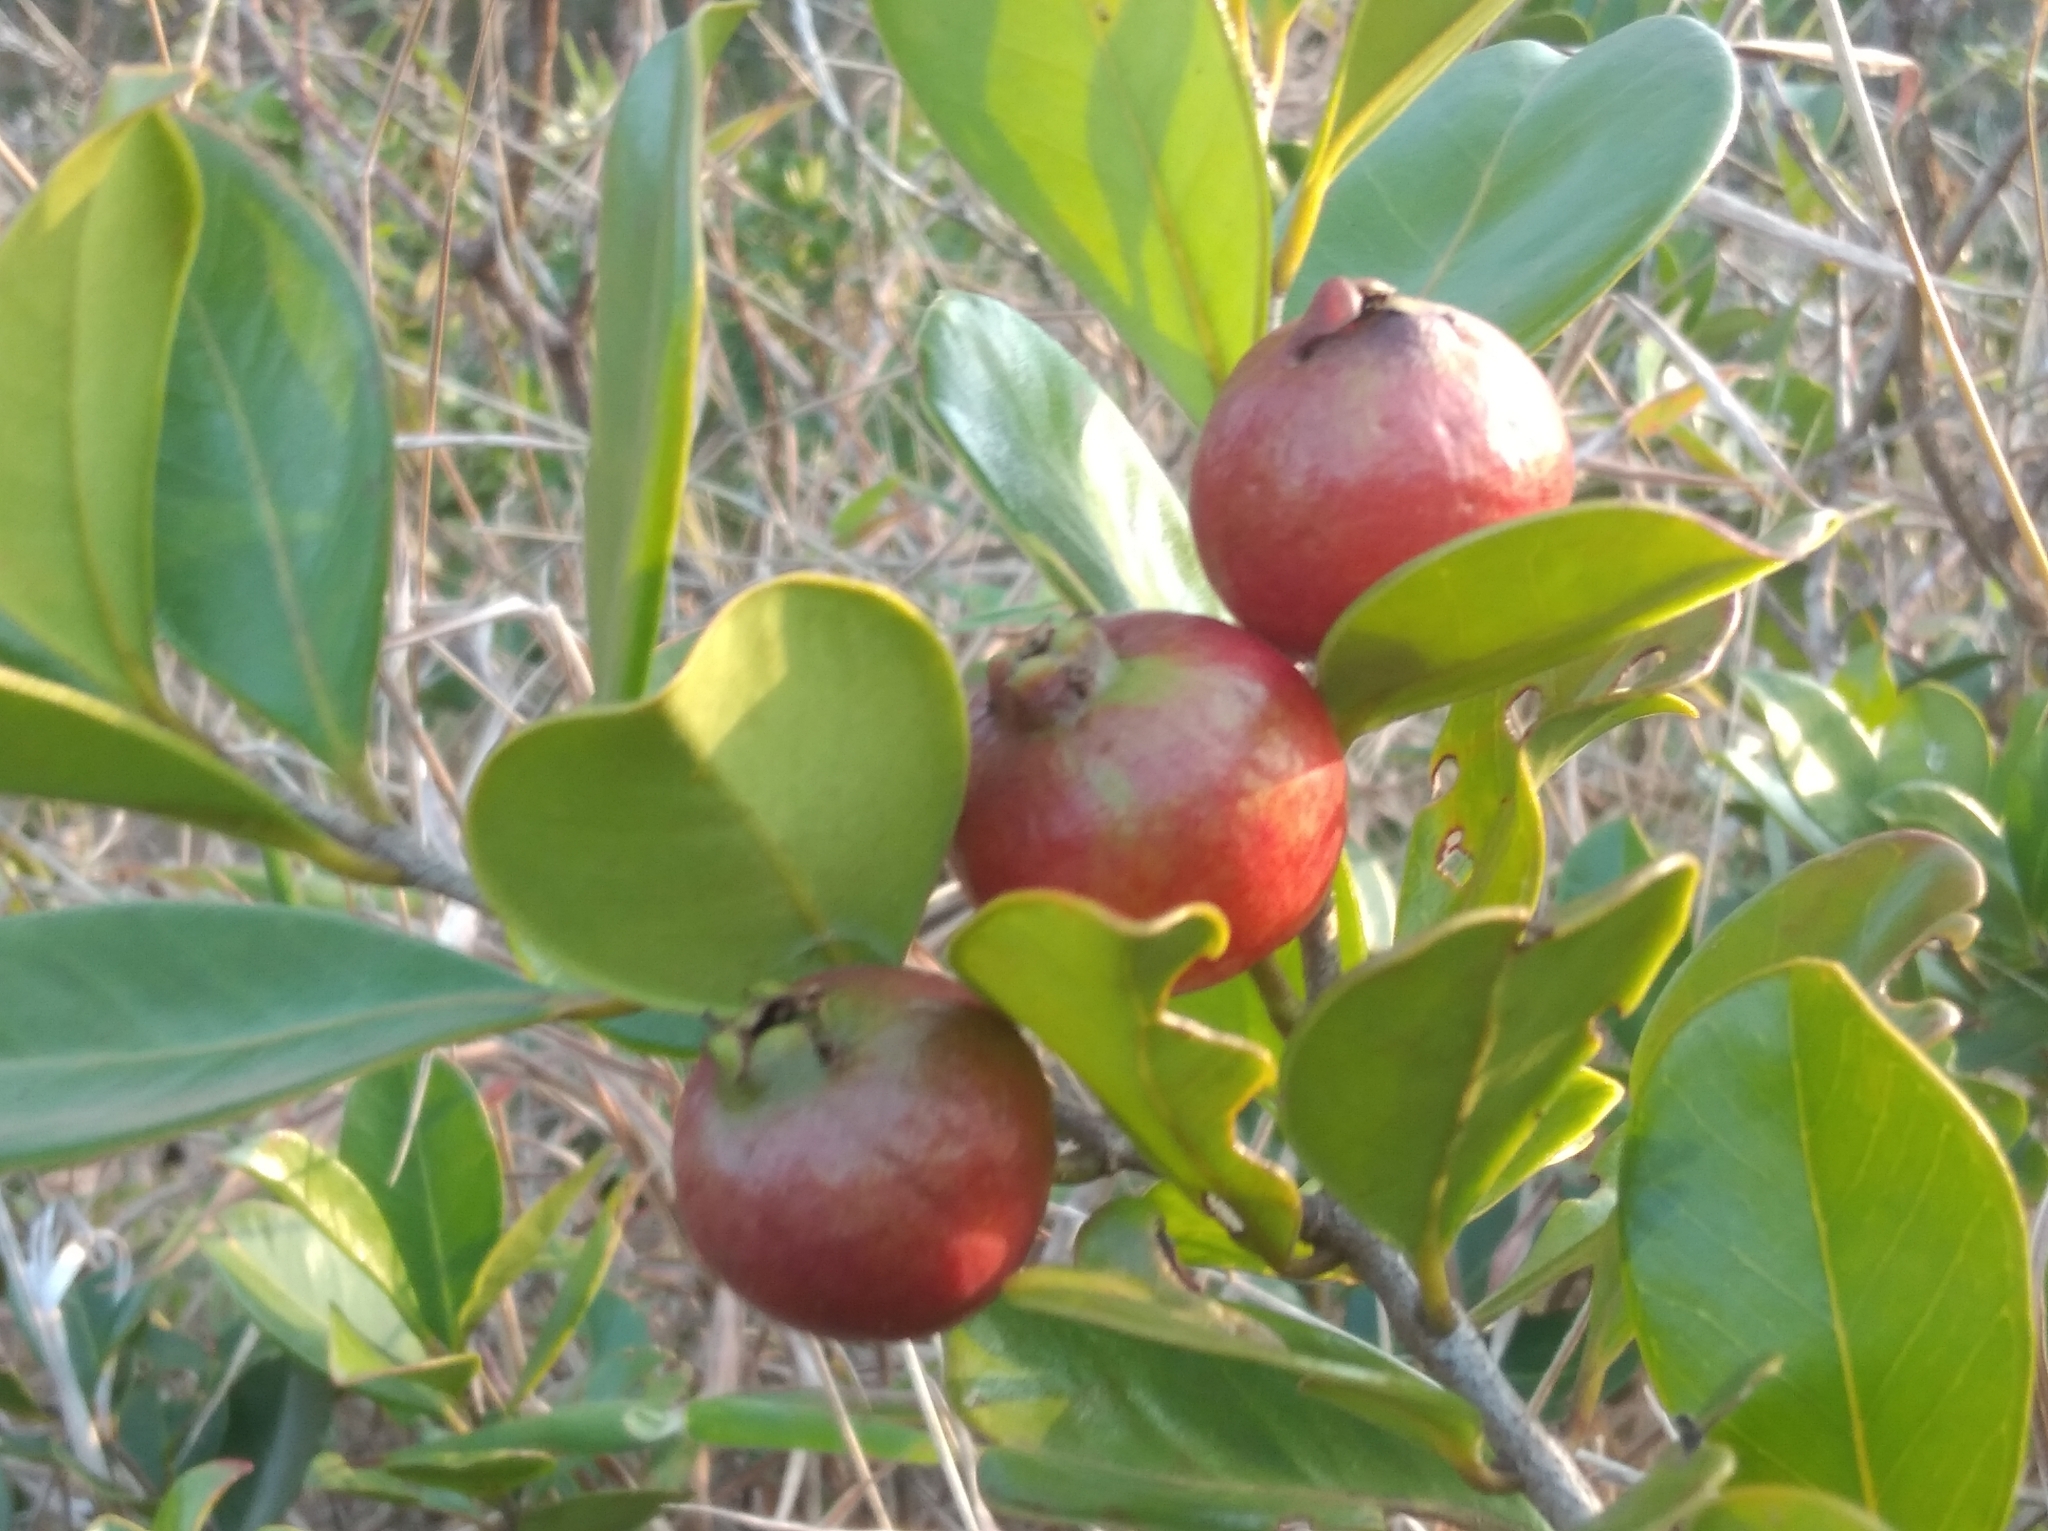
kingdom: Plantae
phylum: Tracheophyta
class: Magnoliopsida
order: Myrtales
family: Myrtaceae
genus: Psidium
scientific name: Psidium cattleianum
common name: Strawberry guava
